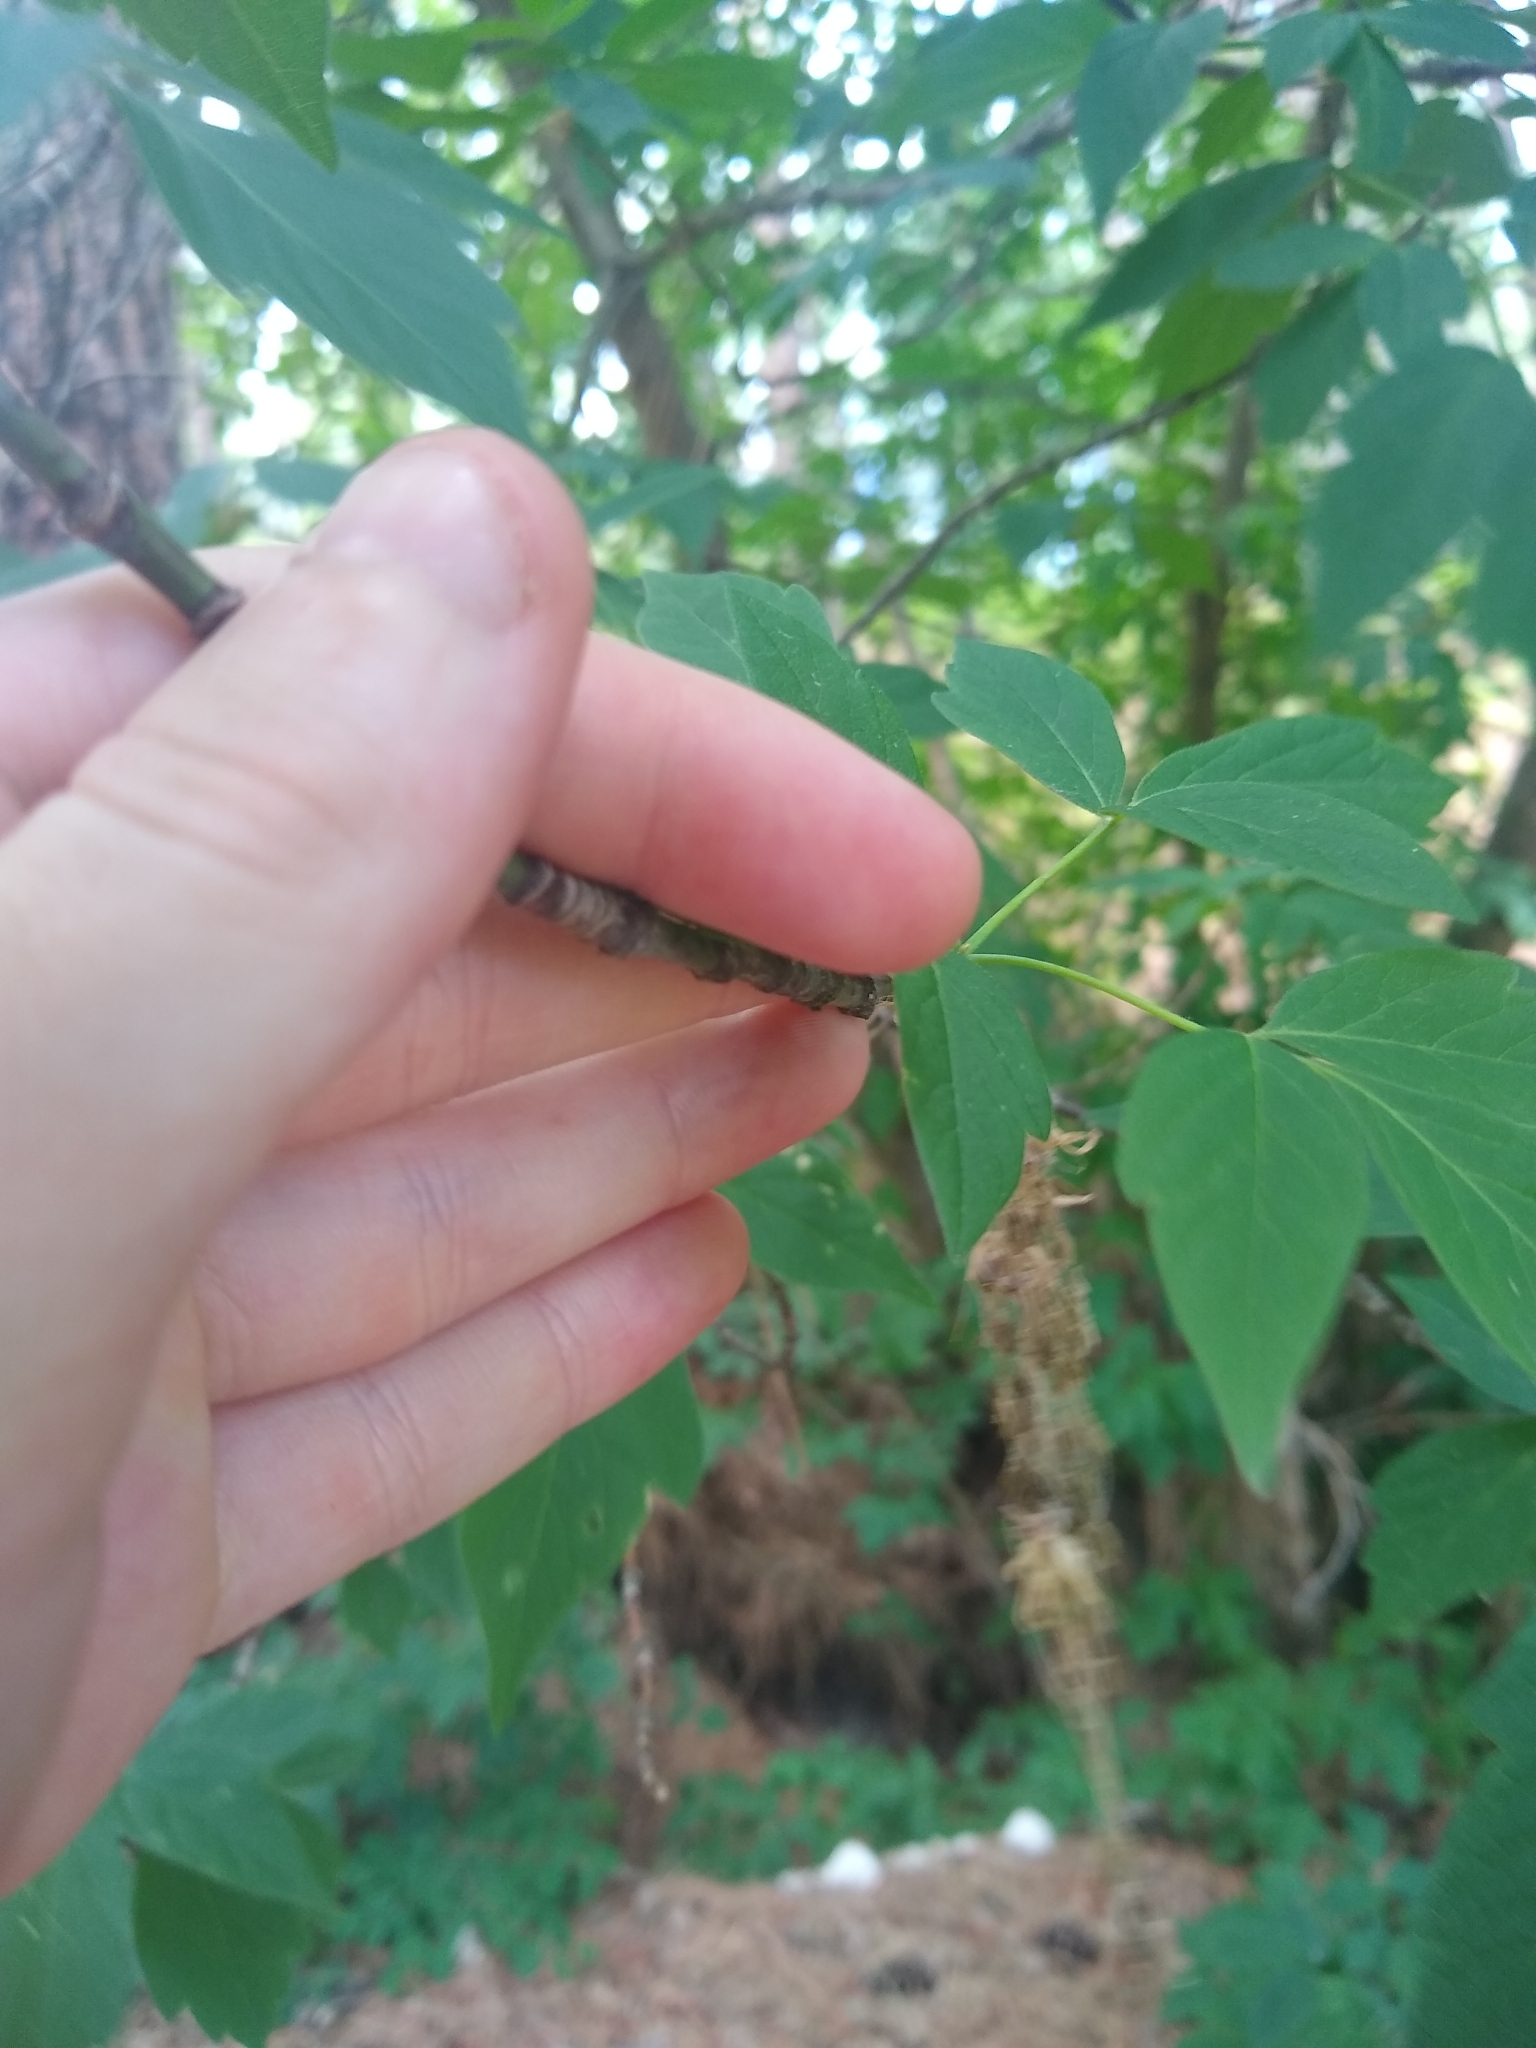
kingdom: Plantae
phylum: Tracheophyta
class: Magnoliopsida
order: Sapindales
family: Sapindaceae
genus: Acer
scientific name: Acer negundo
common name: Ashleaf maple
